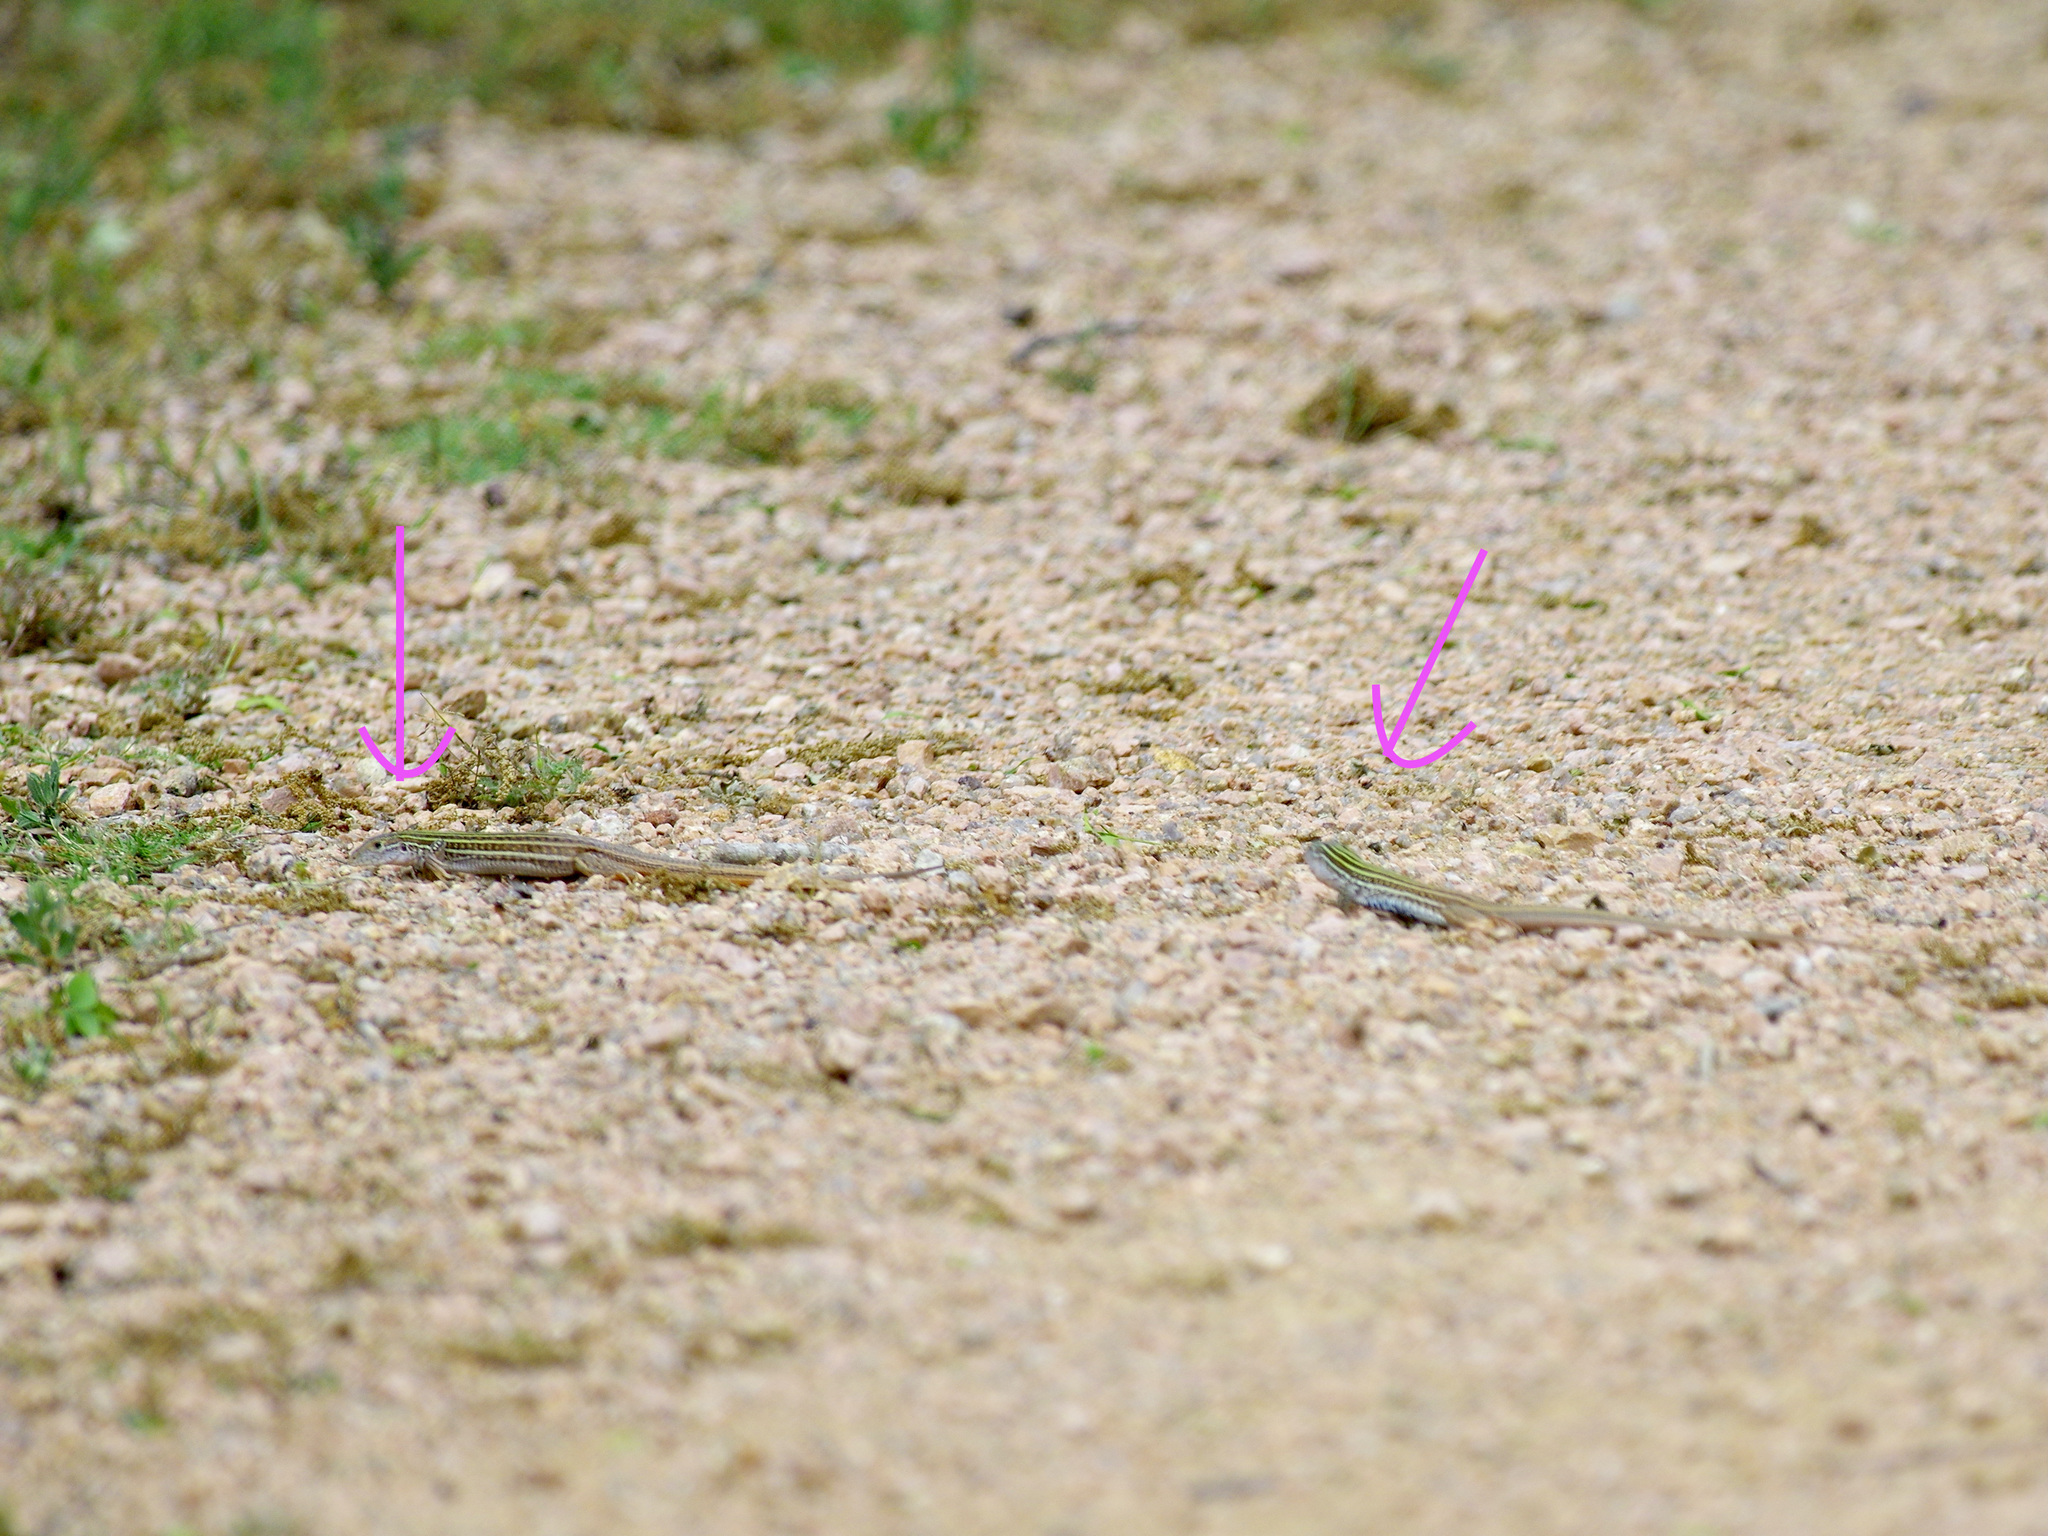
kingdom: Animalia
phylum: Chordata
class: Squamata
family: Teiidae
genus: Aspidoscelis
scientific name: Aspidoscelis gularis
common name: Eastern spotted whiptail
